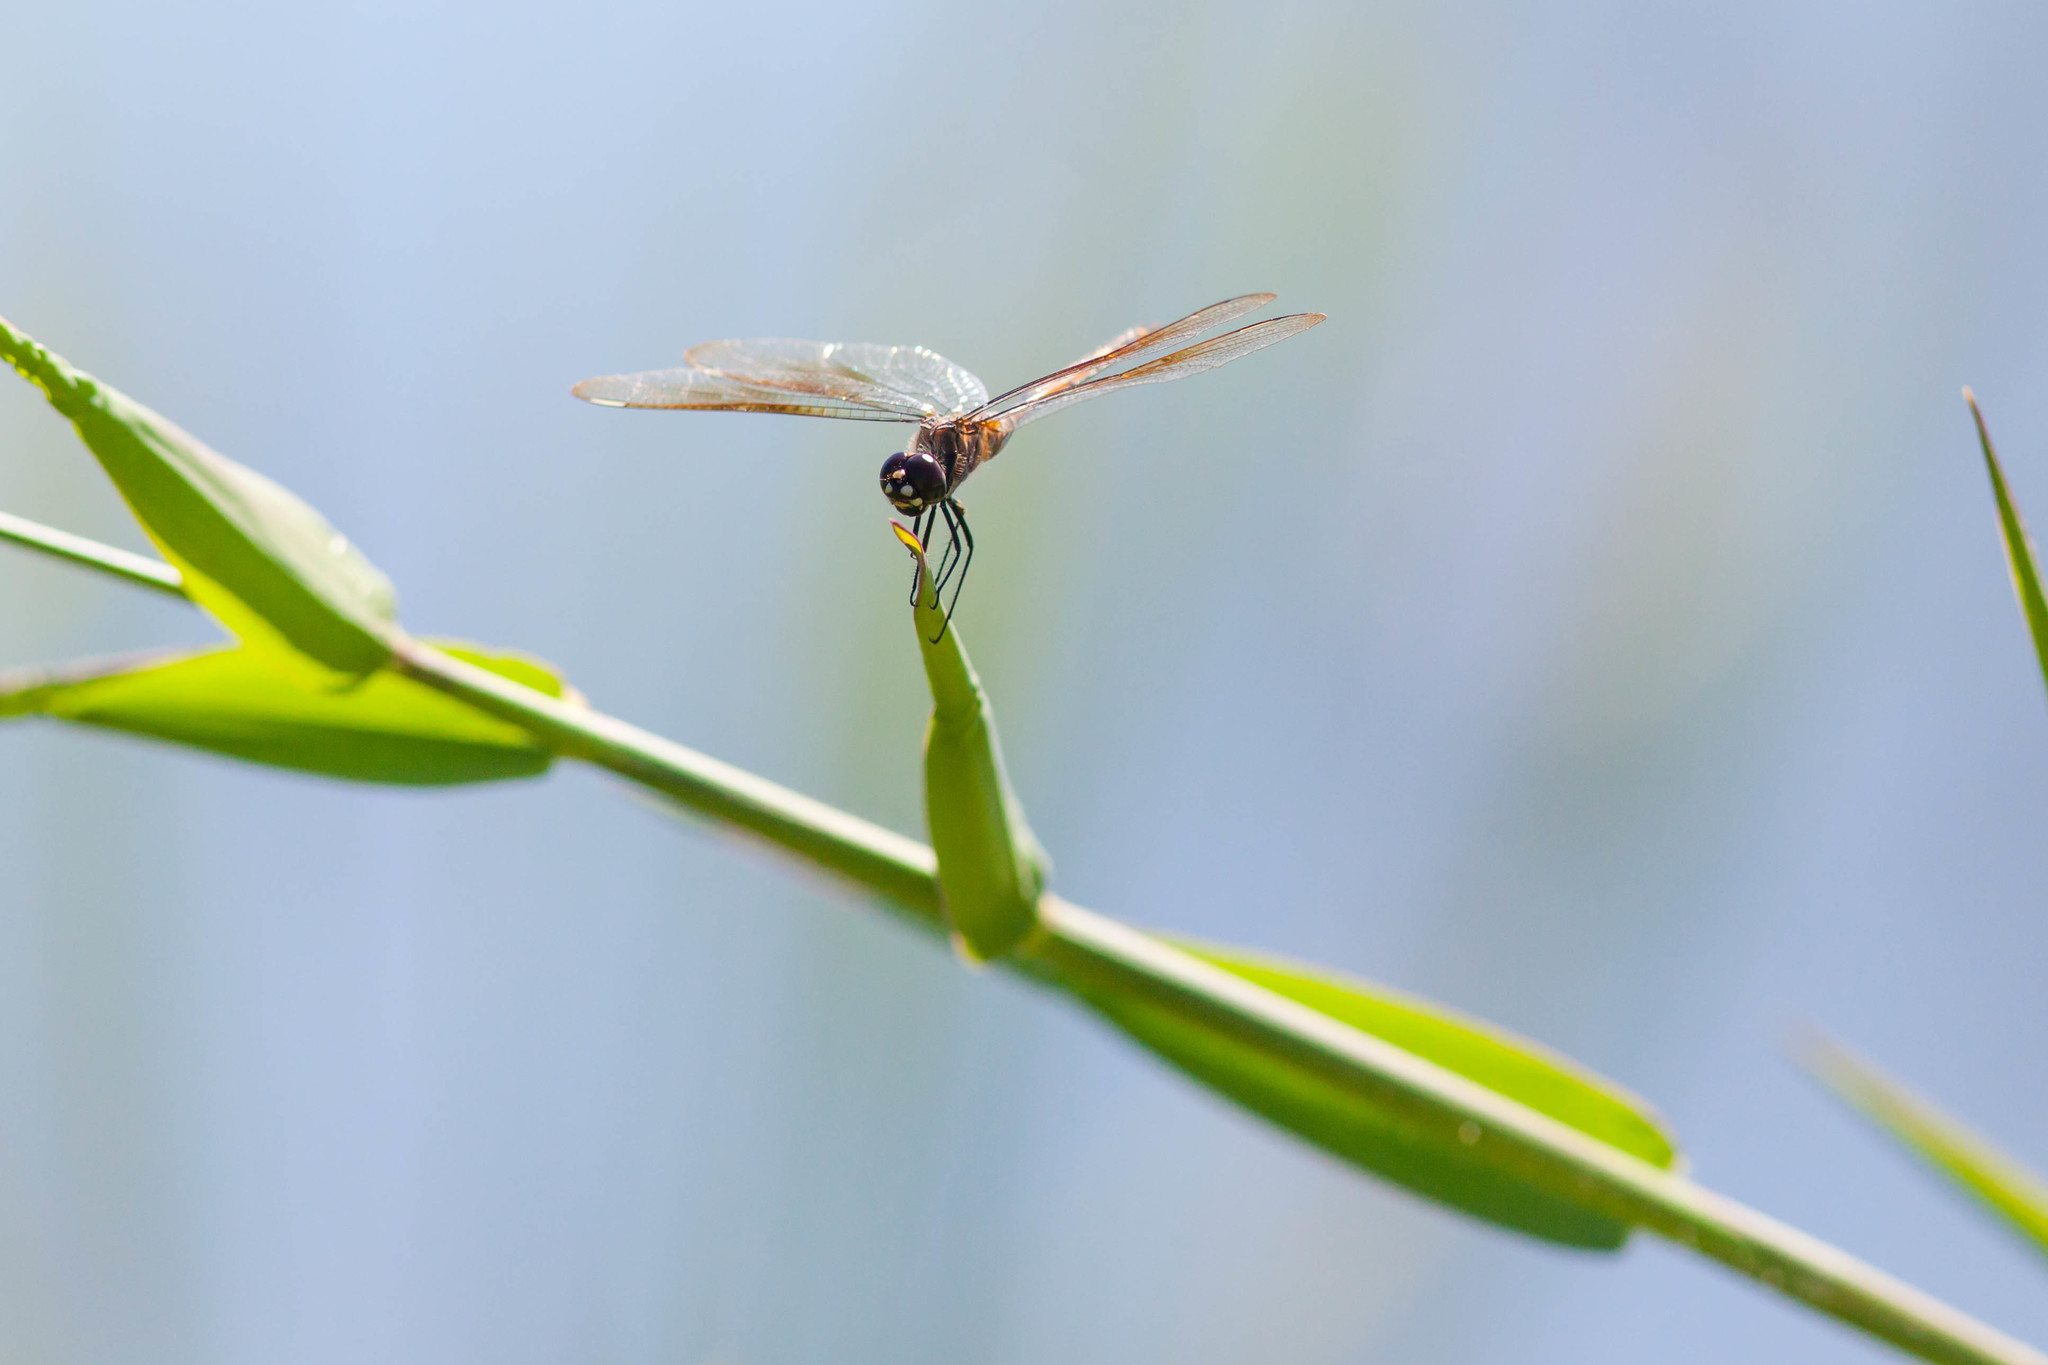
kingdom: Animalia
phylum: Arthropoda
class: Insecta
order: Odonata
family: Libellulidae
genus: Brachymesia
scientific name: Brachymesia gravida
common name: Four-spotted pennant
